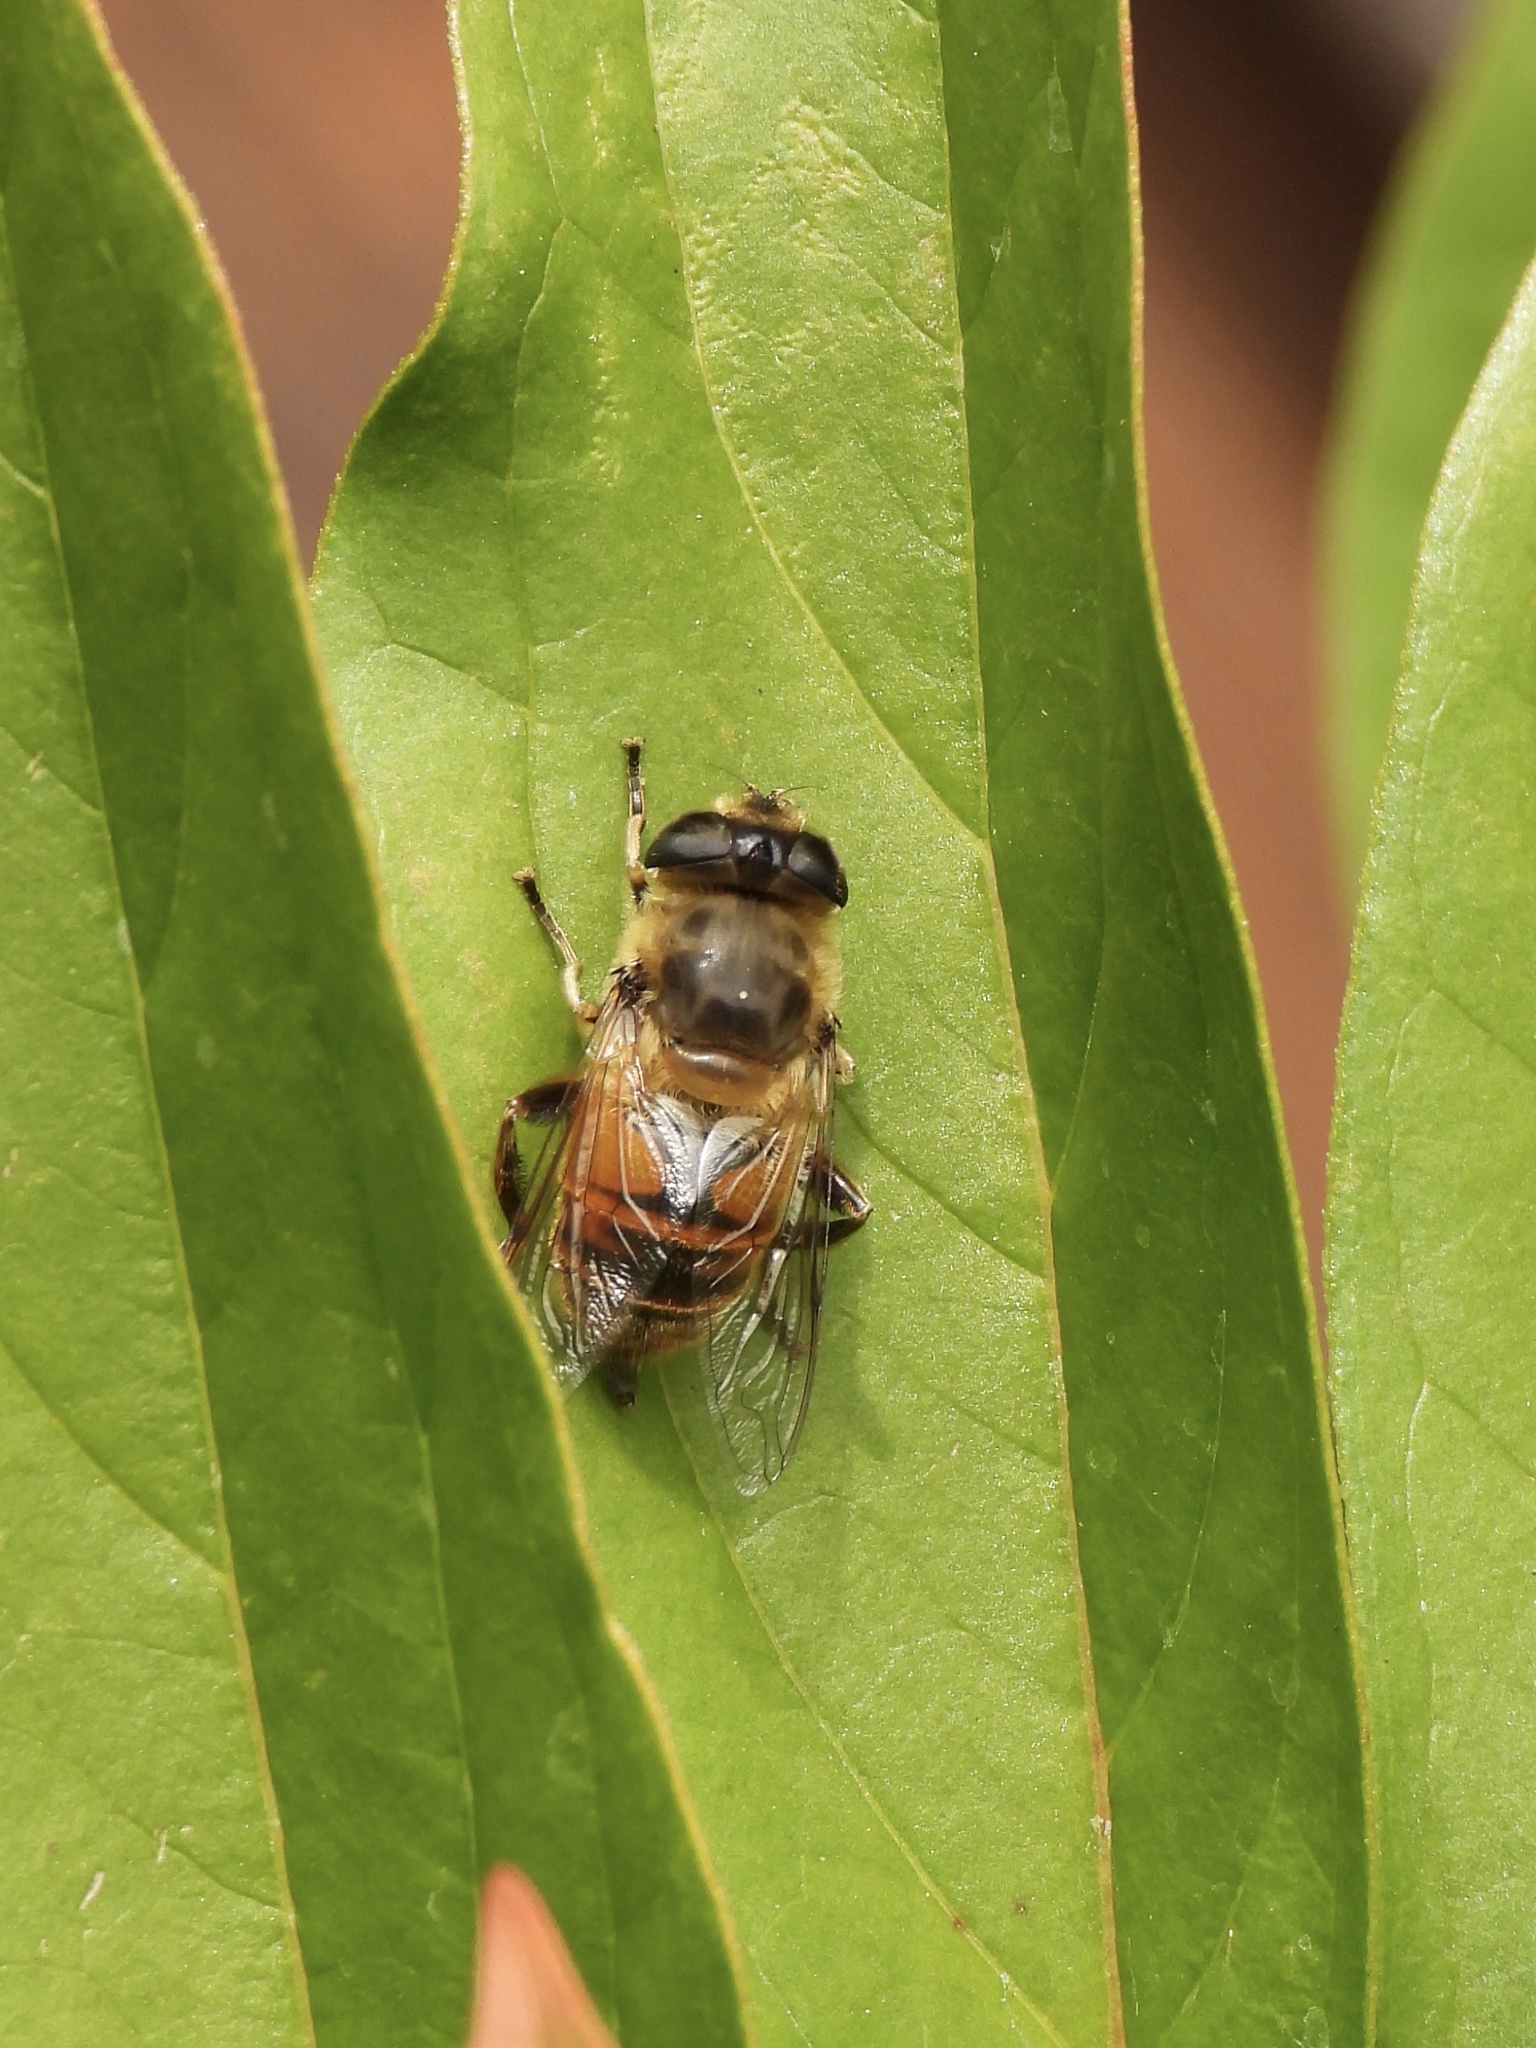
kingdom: Animalia
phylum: Arthropoda
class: Insecta
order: Diptera
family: Syrphidae
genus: Eristalis
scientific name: Eristalis tenax
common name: Drone fly
